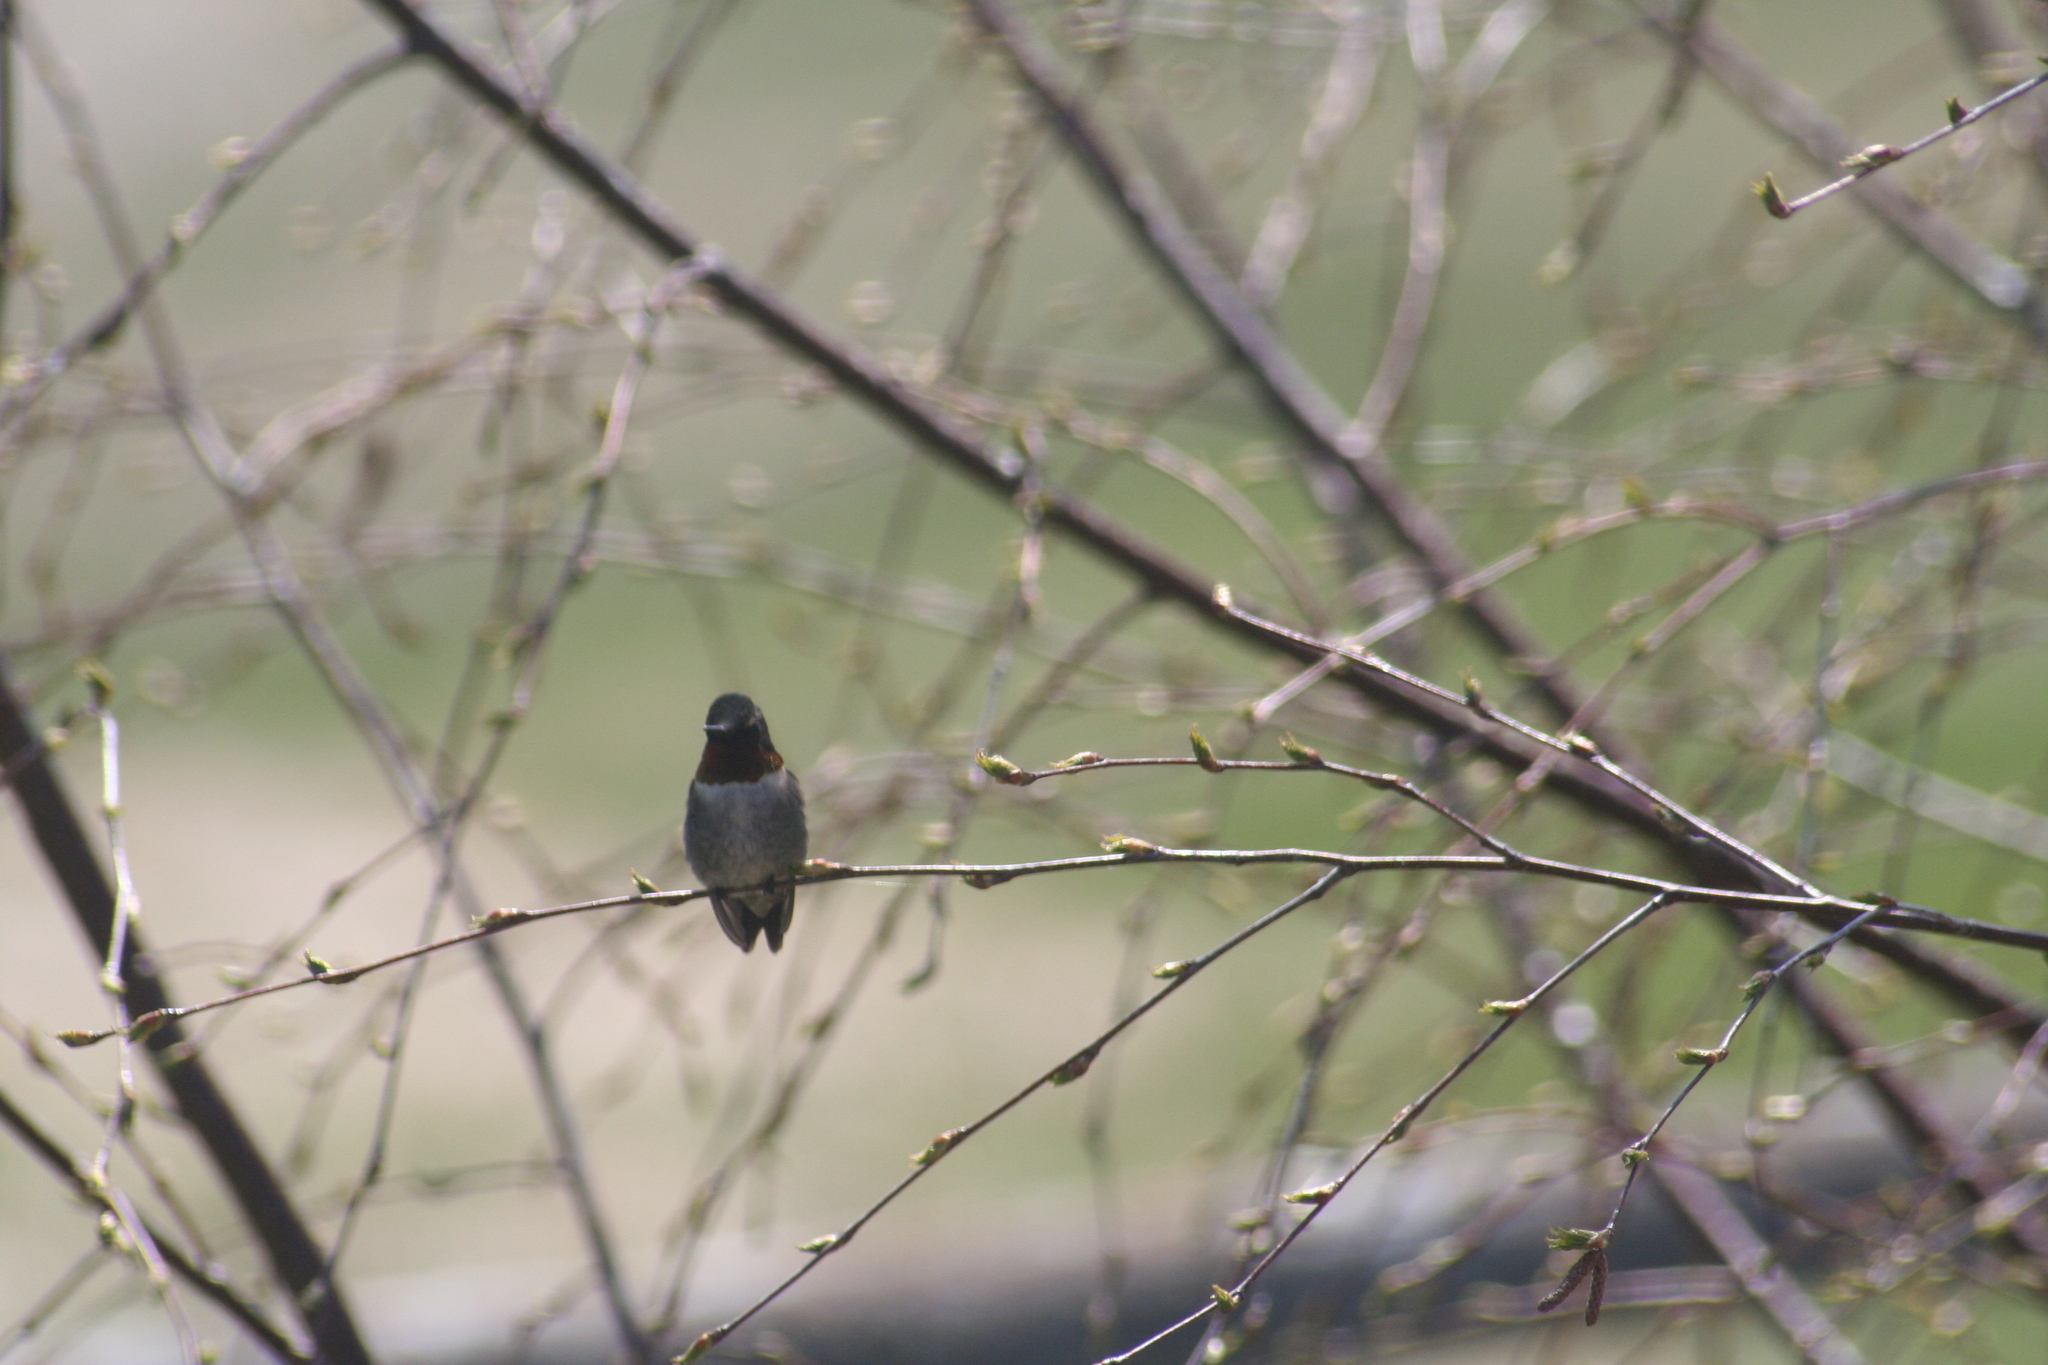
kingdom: Animalia
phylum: Chordata
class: Aves
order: Apodiformes
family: Trochilidae
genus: Archilochus
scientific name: Archilochus colubris
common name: Ruby-throated hummingbird
